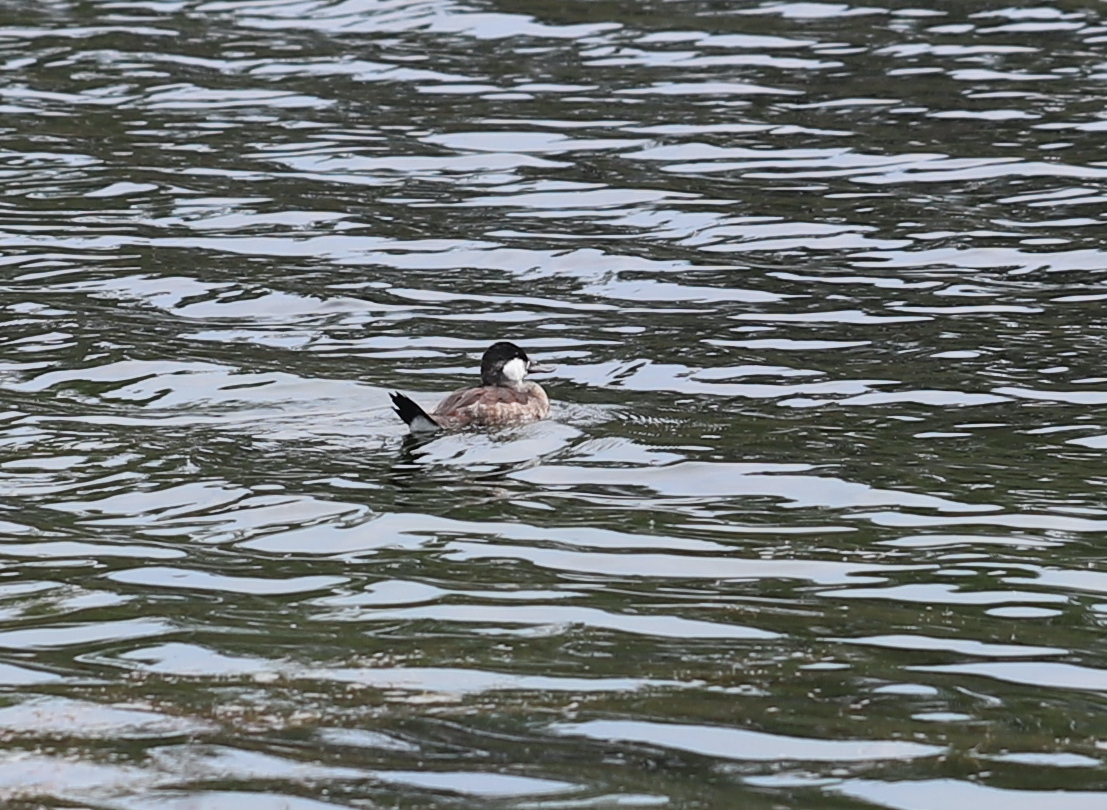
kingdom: Animalia
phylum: Chordata
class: Aves
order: Anseriformes
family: Anatidae
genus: Oxyura
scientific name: Oxyura jamaicensis
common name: Ruddy duck
